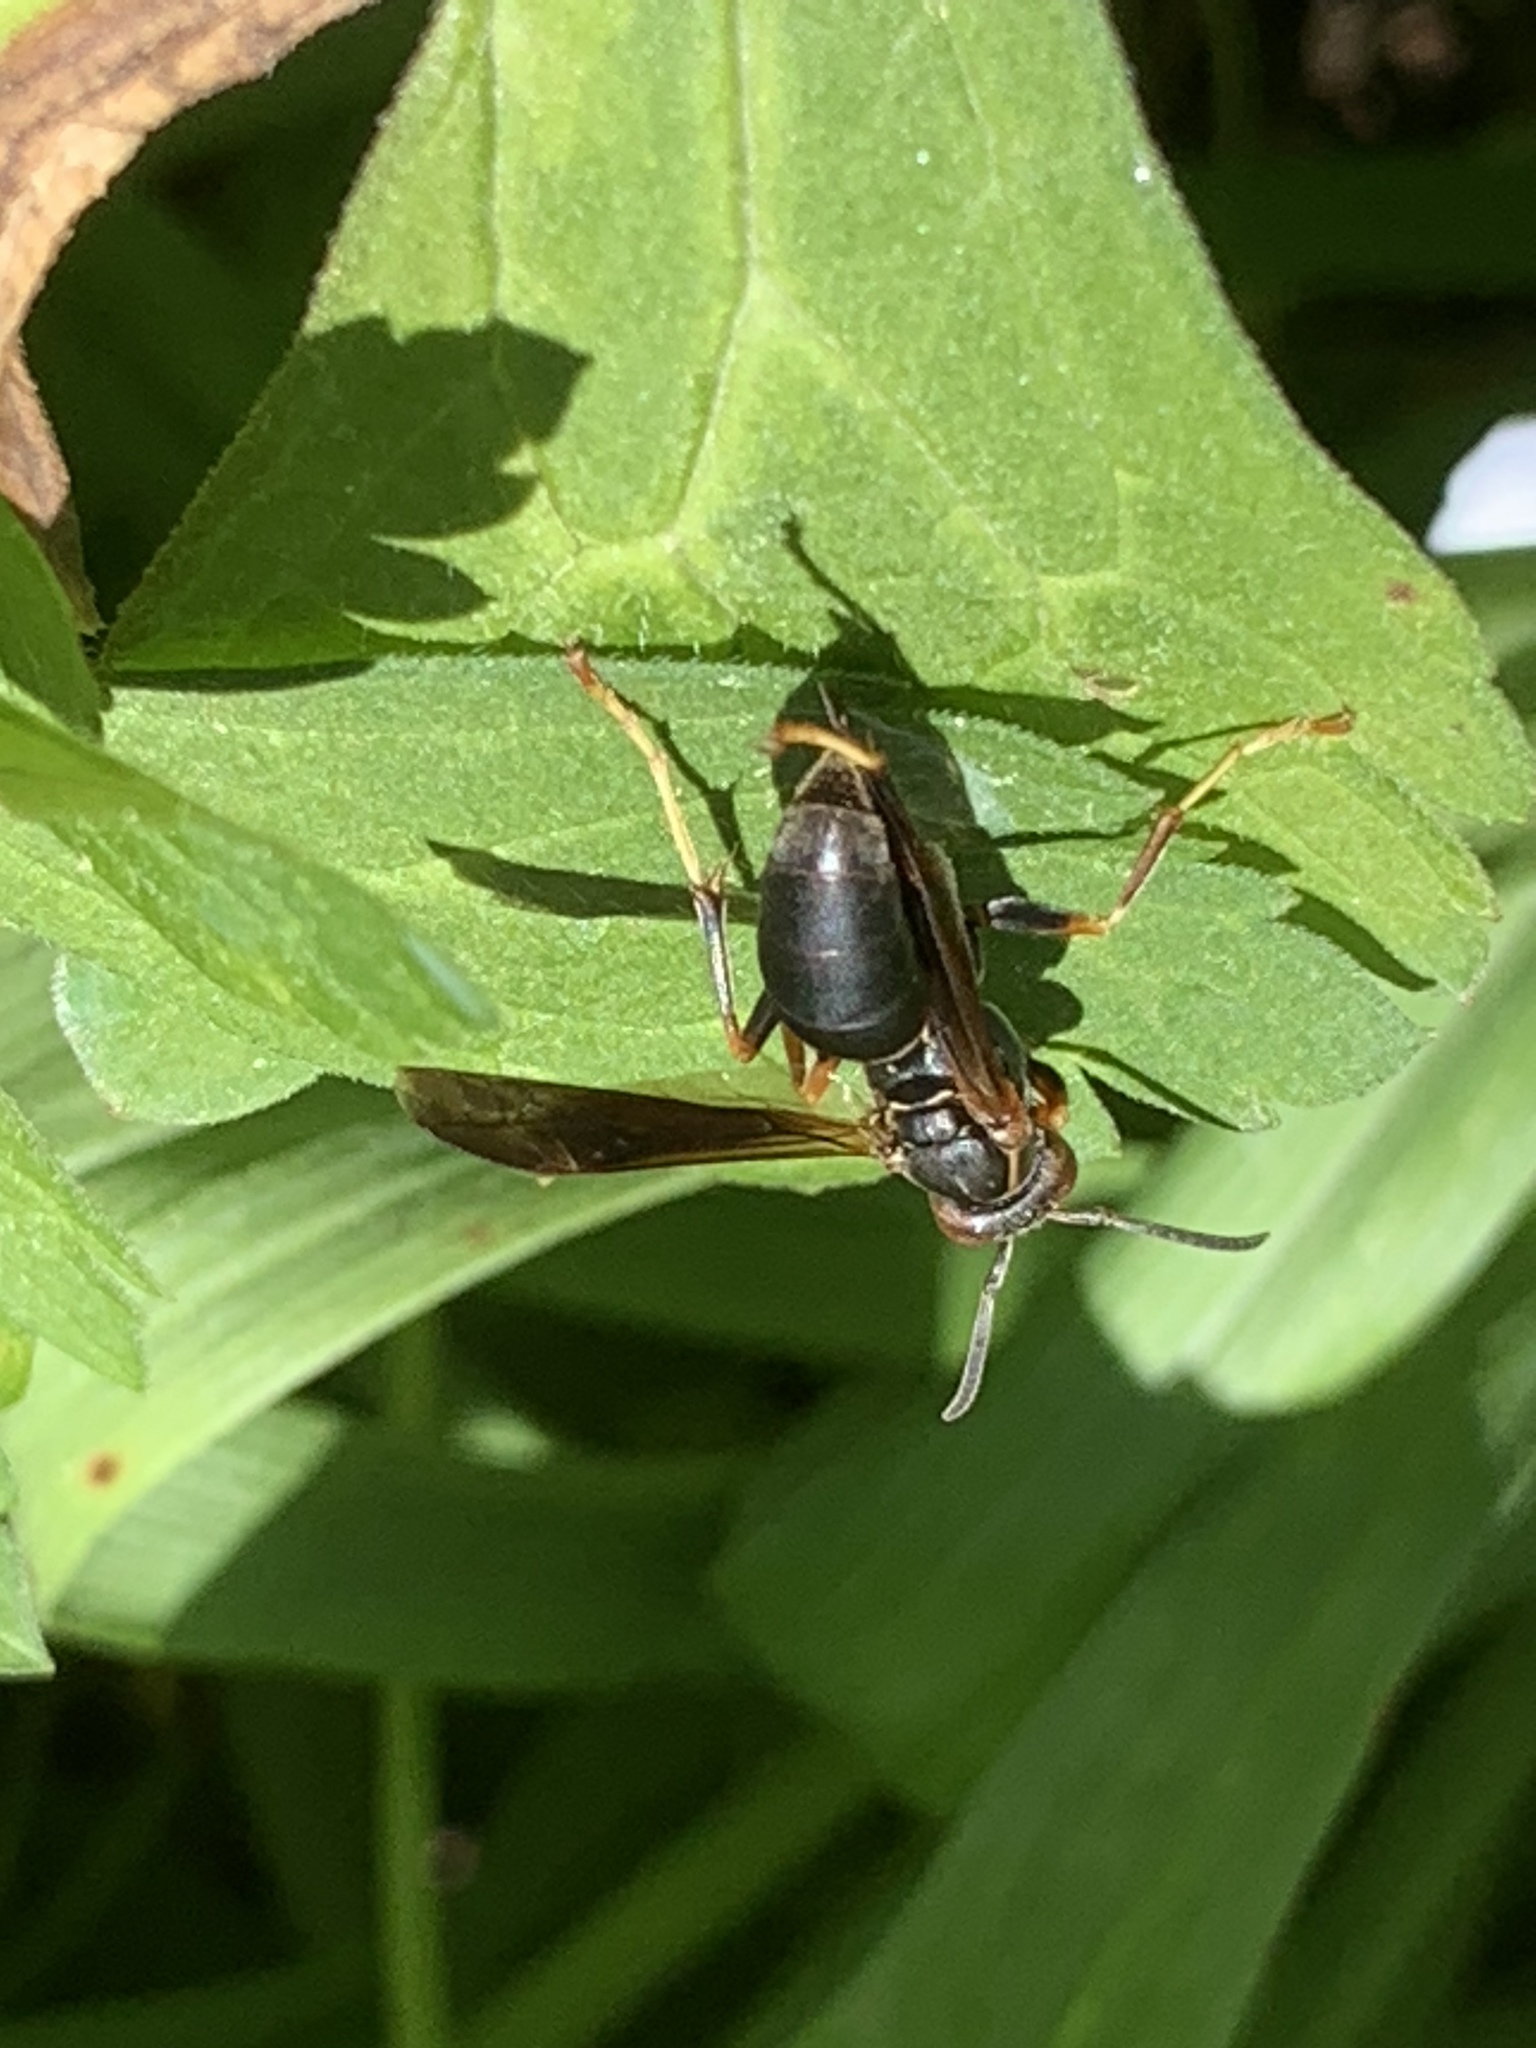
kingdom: Animalia
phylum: Arthropoda
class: Insecta
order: Hymenoptera
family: Eumenidae
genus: Polistes
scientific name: Polistes fuscatus
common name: Dark paper wasp
